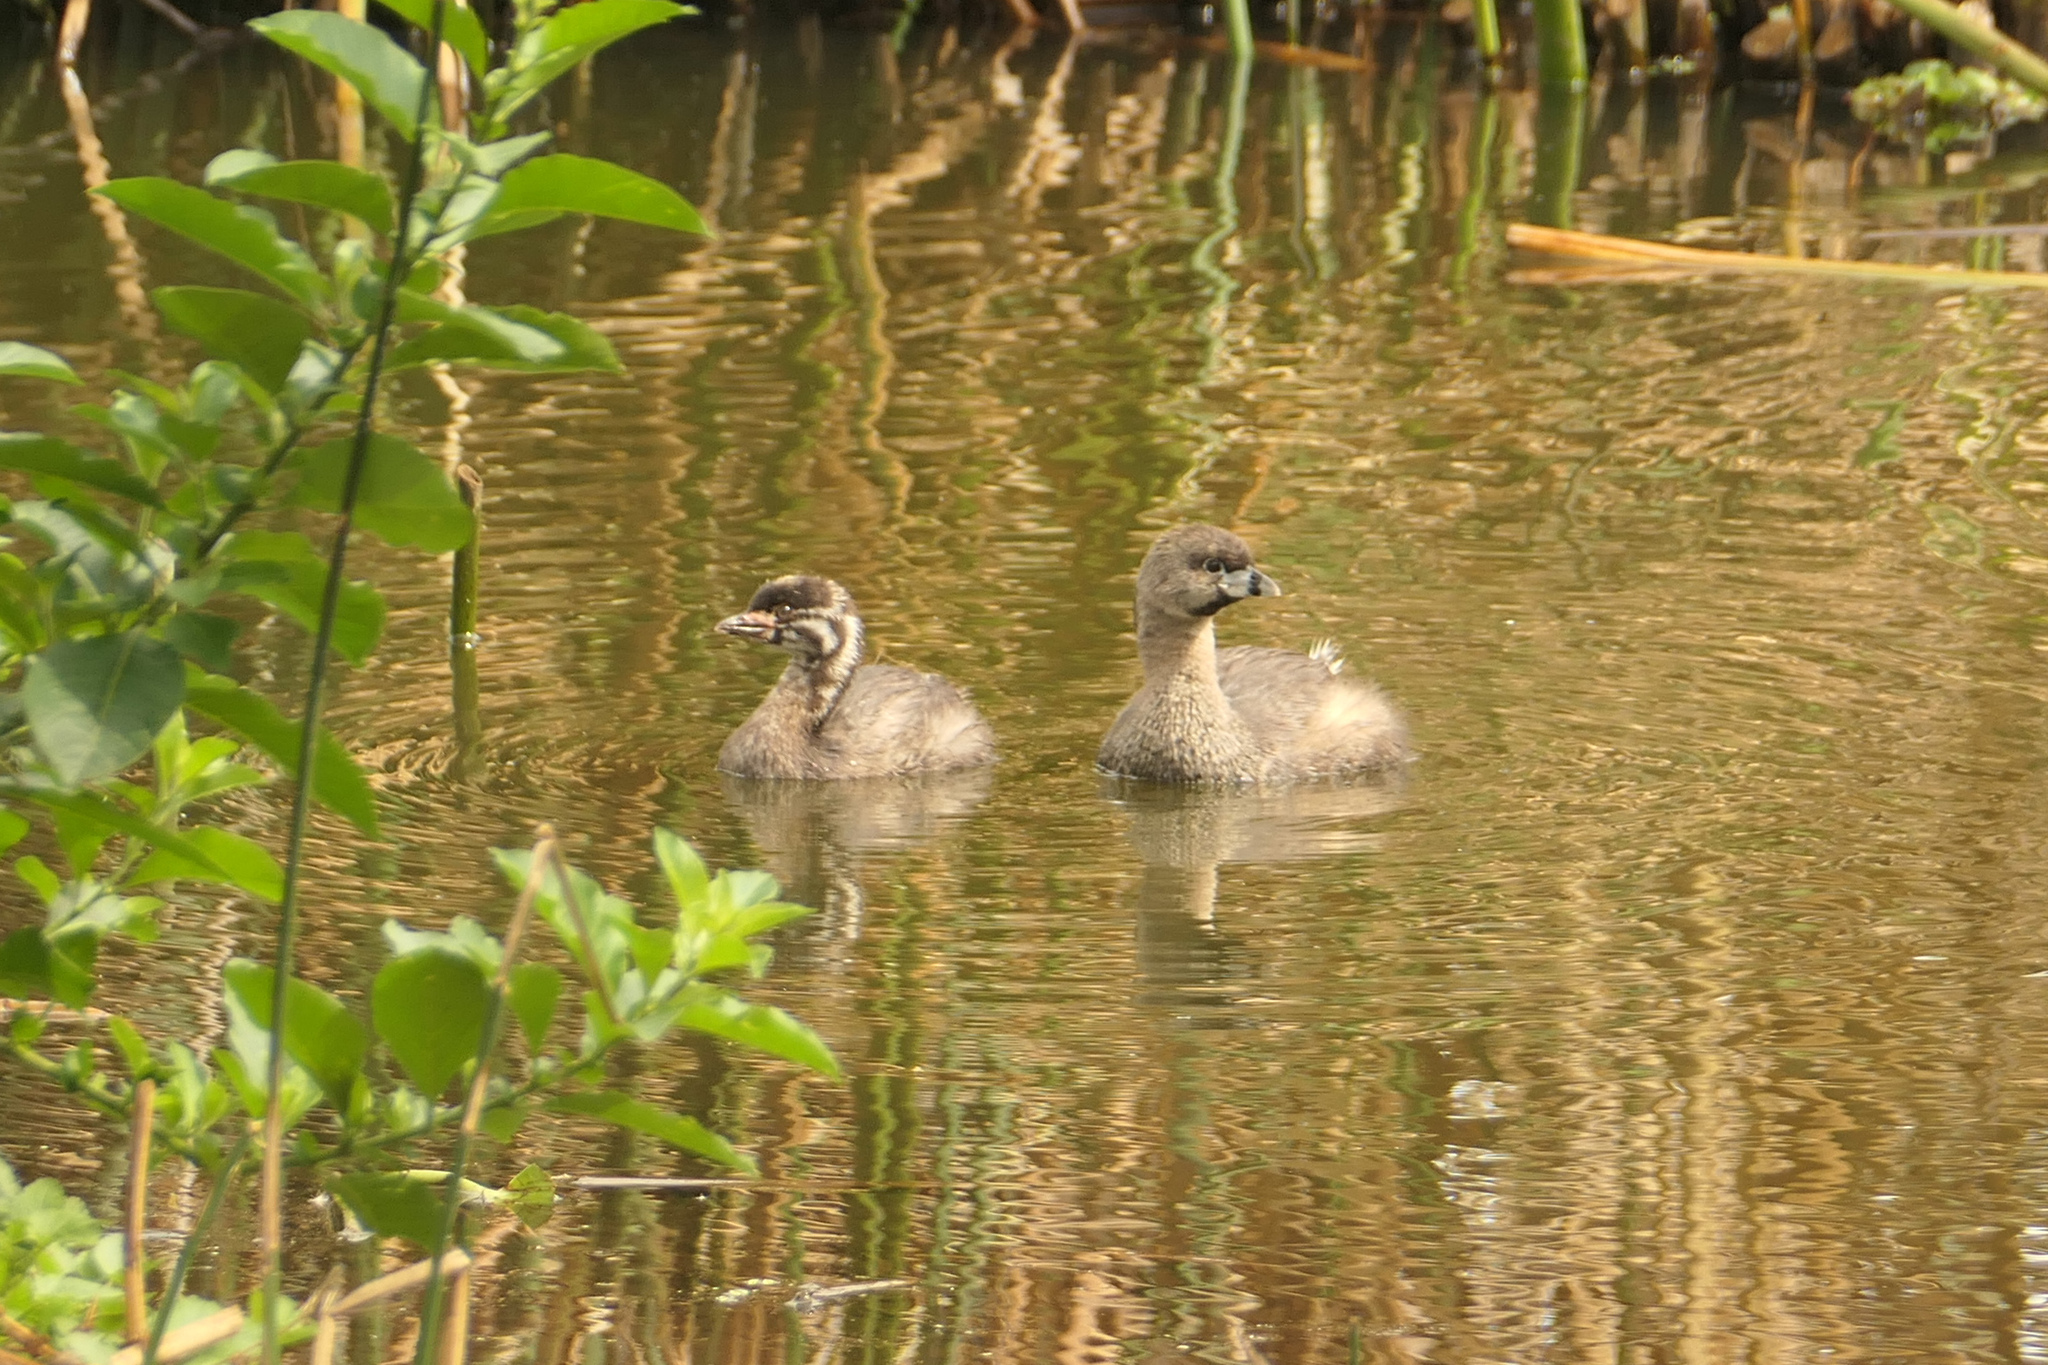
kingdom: Animalia
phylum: Chordata
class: Aves
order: Podicipediformes
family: Podicipedidae
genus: Podilymbus
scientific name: Podilymbus podiceps
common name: Pied-billed grebe
